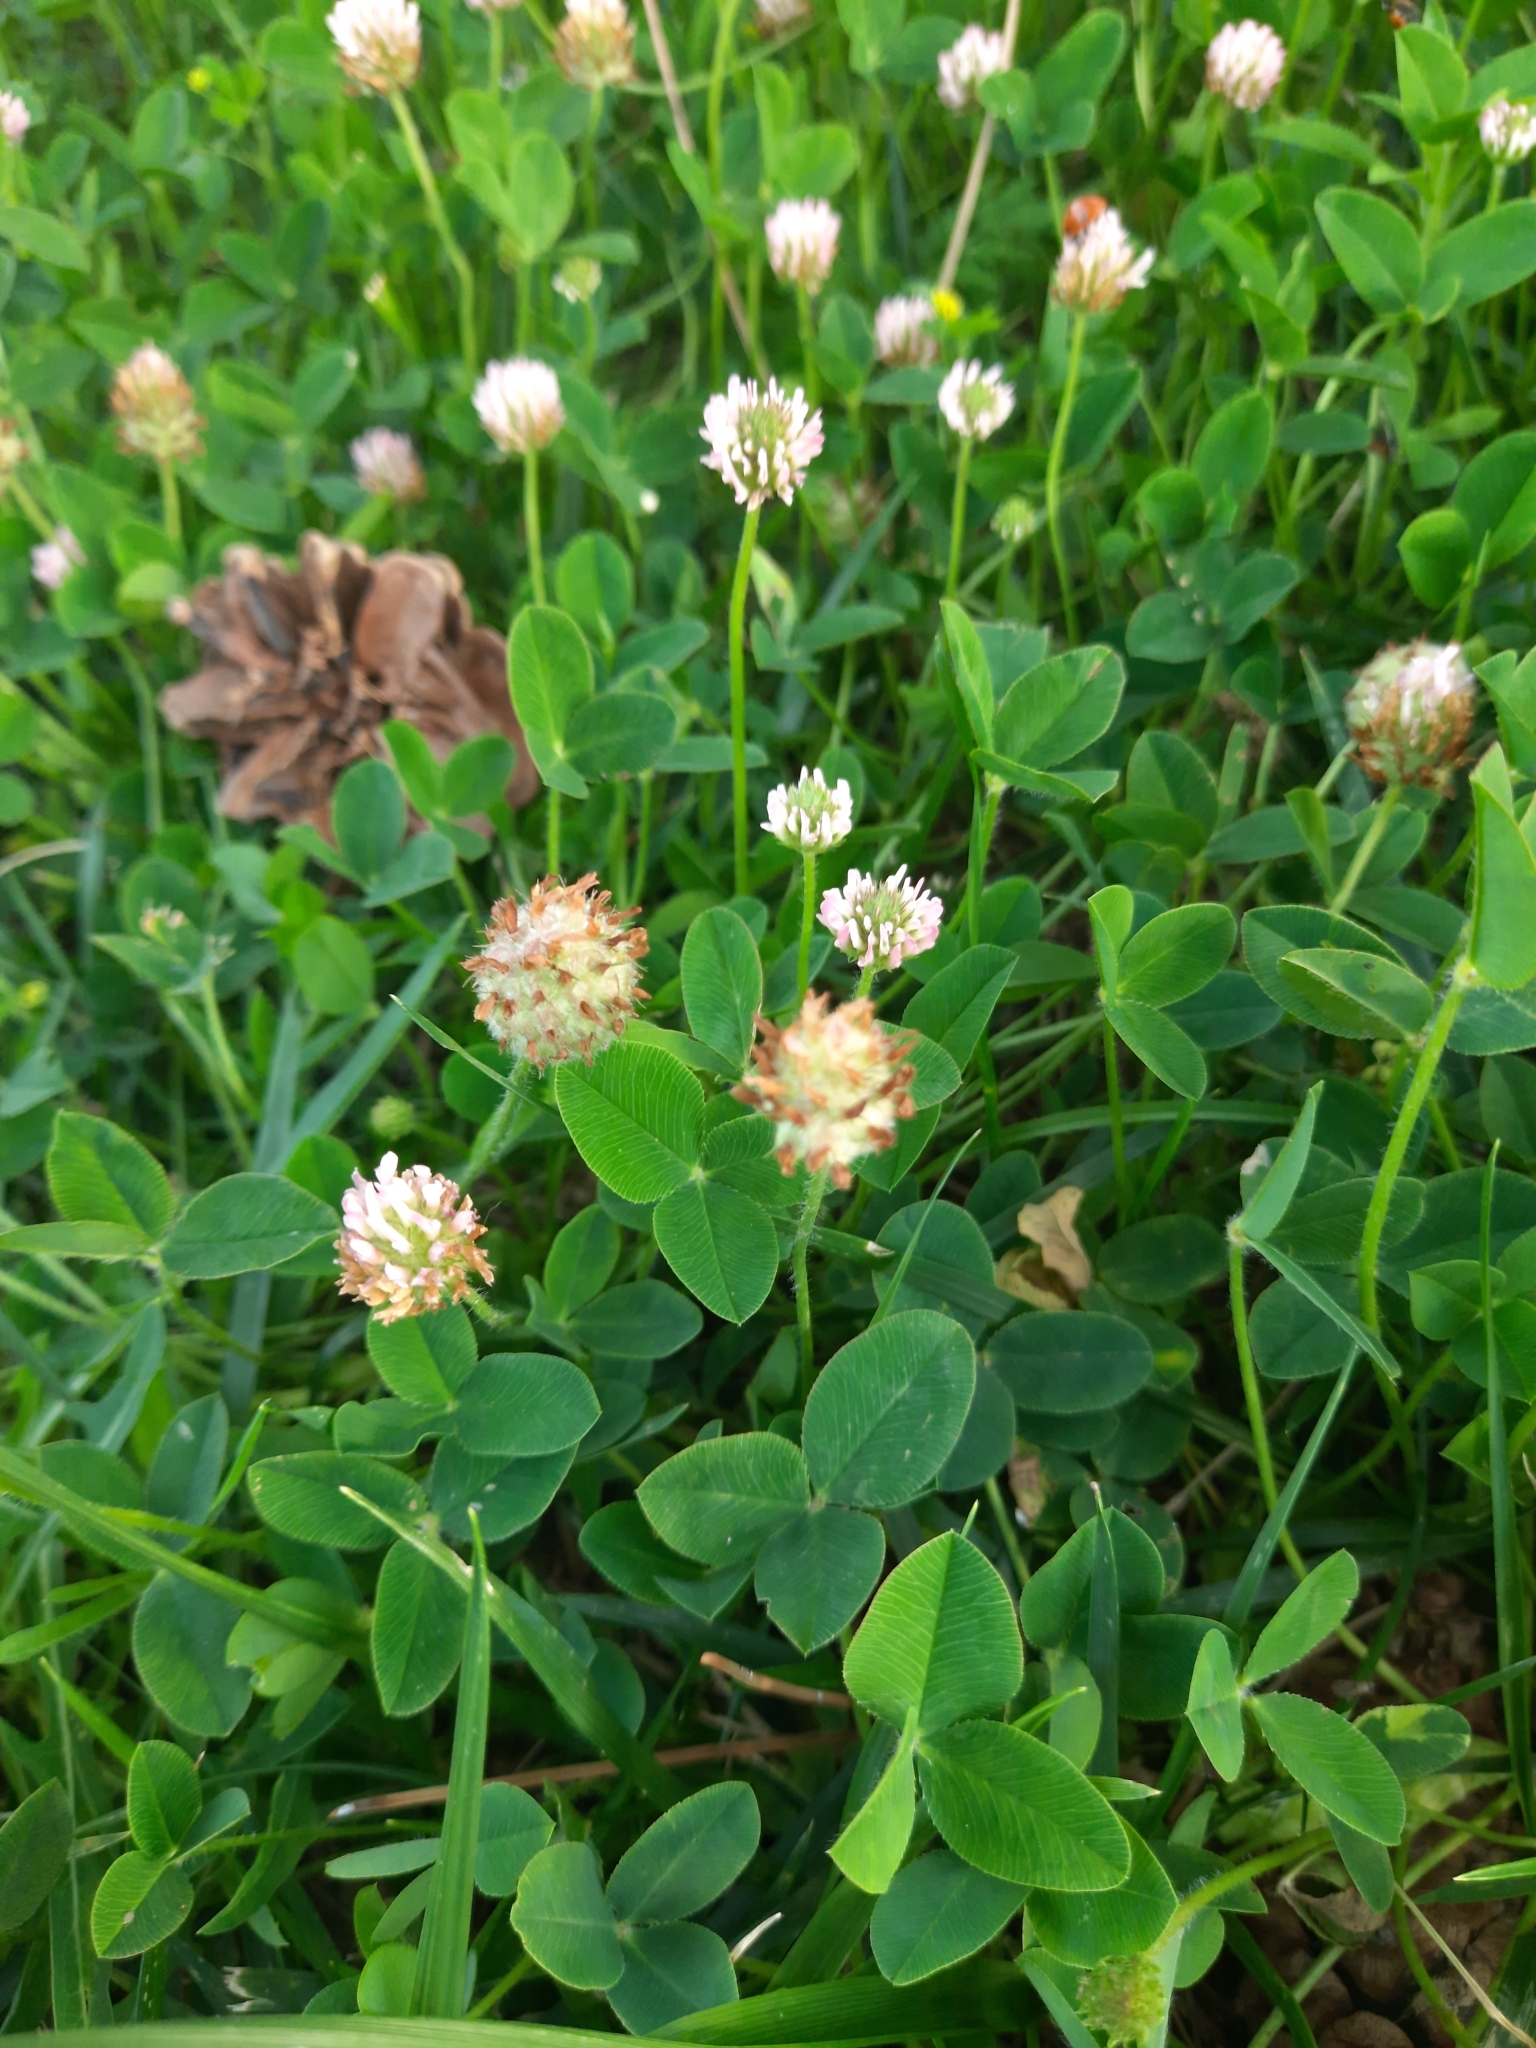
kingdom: Plantae
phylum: Tracheophyta
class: Magnoliopsida
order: Fabales
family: Fabaceae
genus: Trifolium
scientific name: Trifolium fragiferum
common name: Strawberry clover
